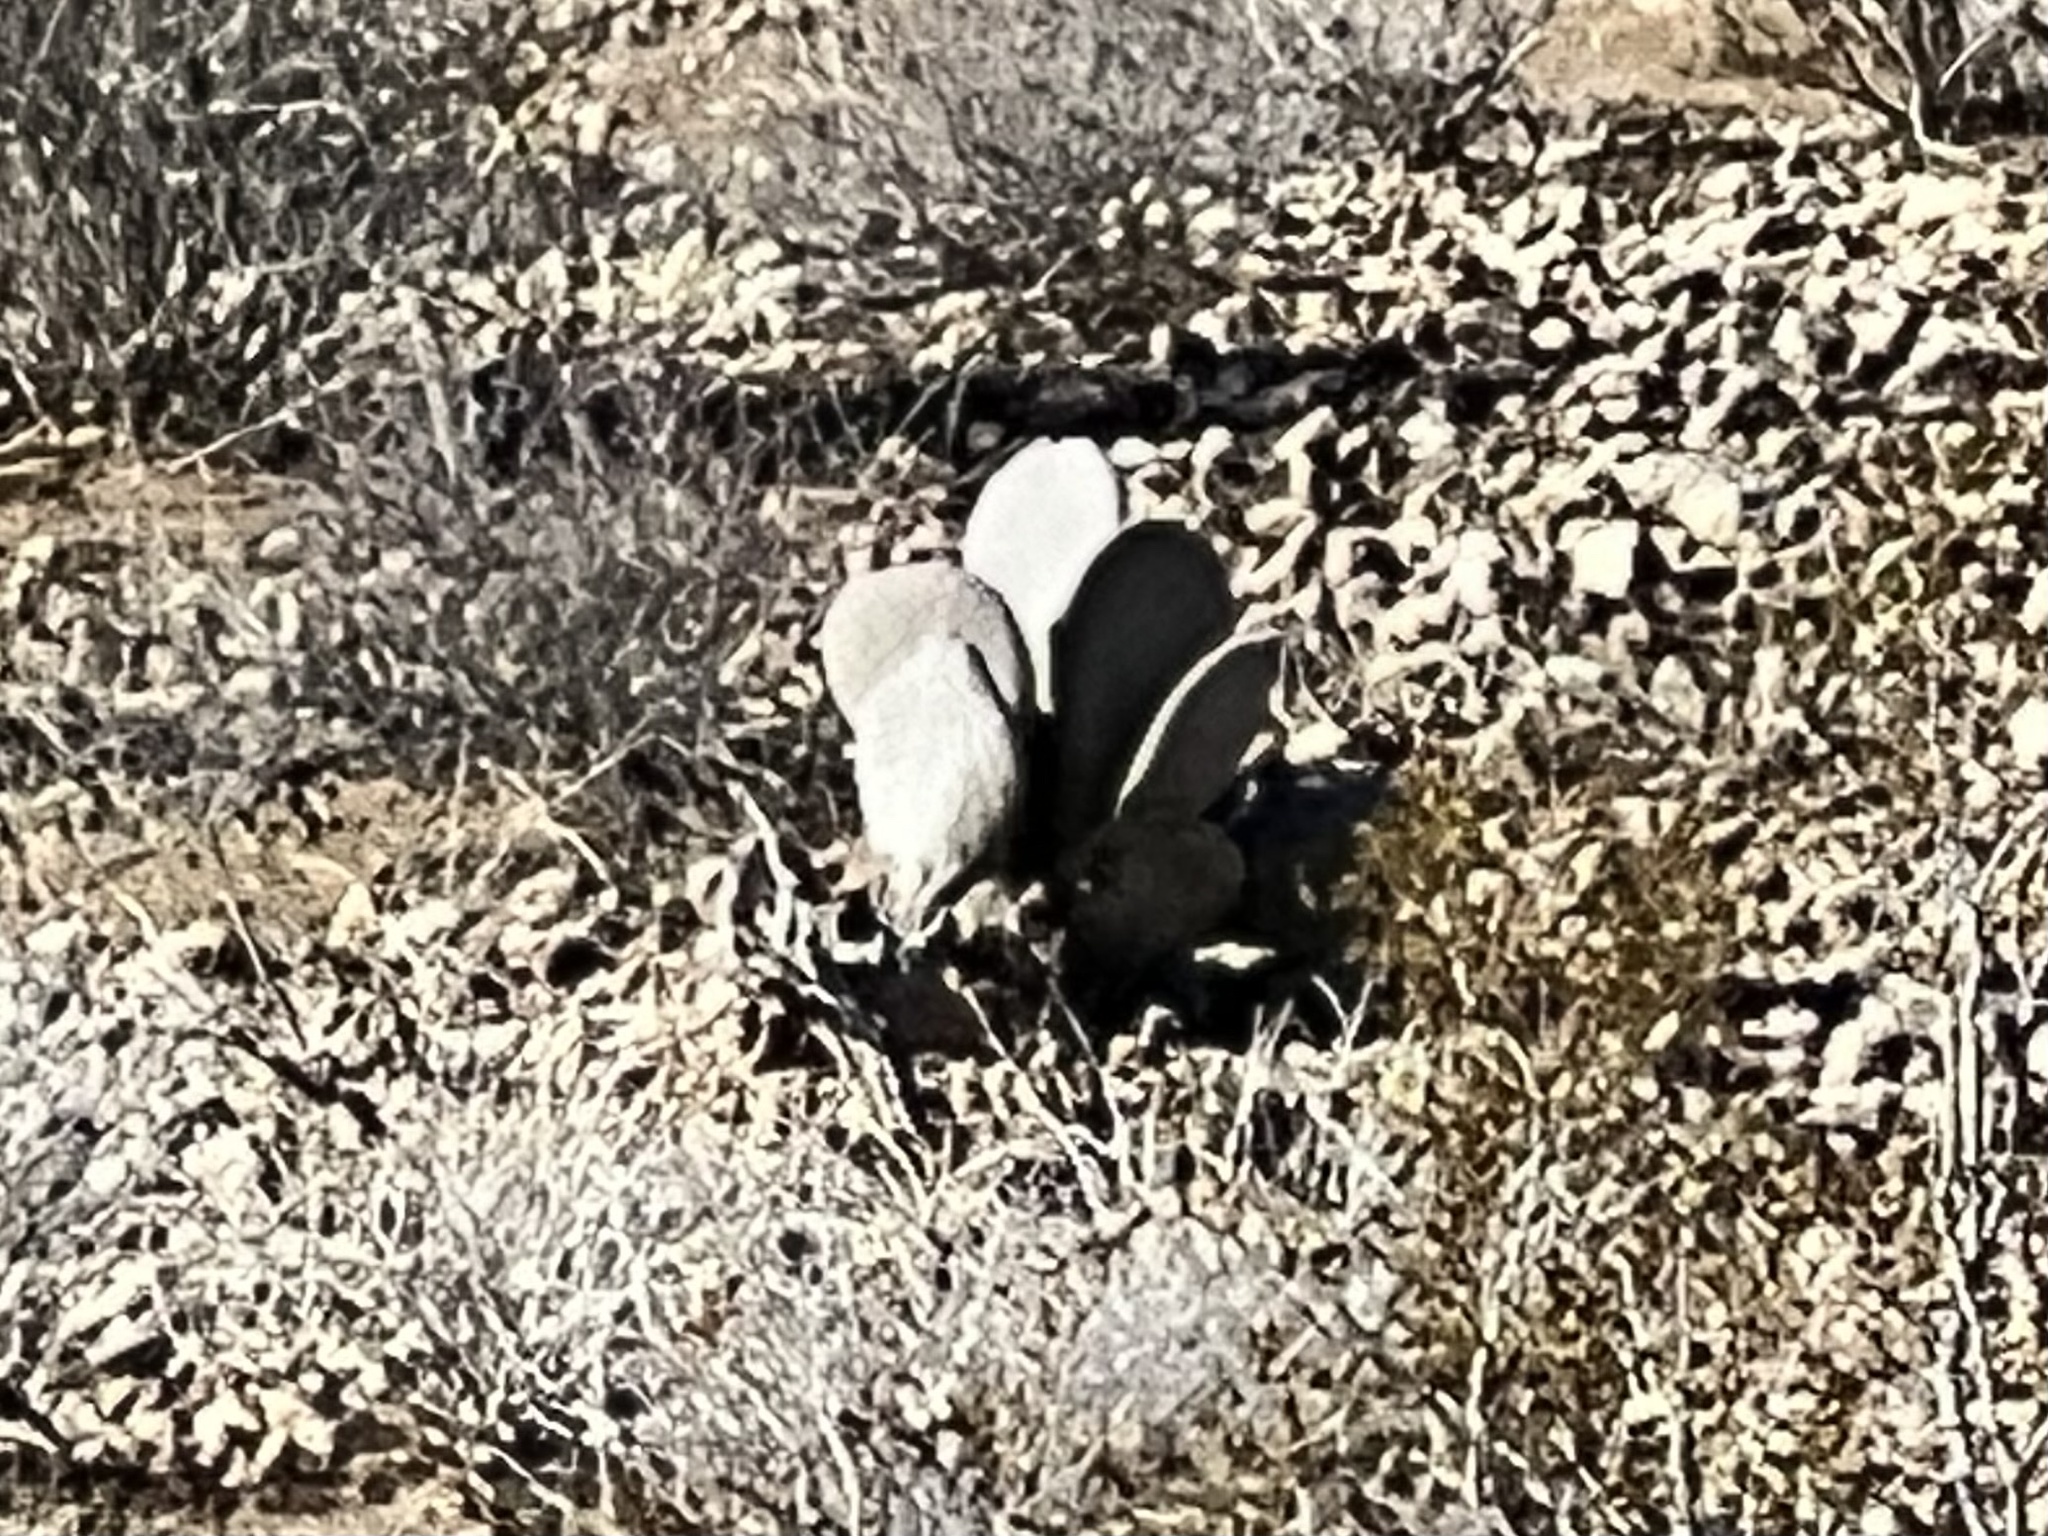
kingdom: Plantae
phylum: Tracheophyta
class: Magnoliopsida
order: Caryophyllales
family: Cactaceae
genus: Opuntia
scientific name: Opuntia basilaris
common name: Beavertail prickly-pear
